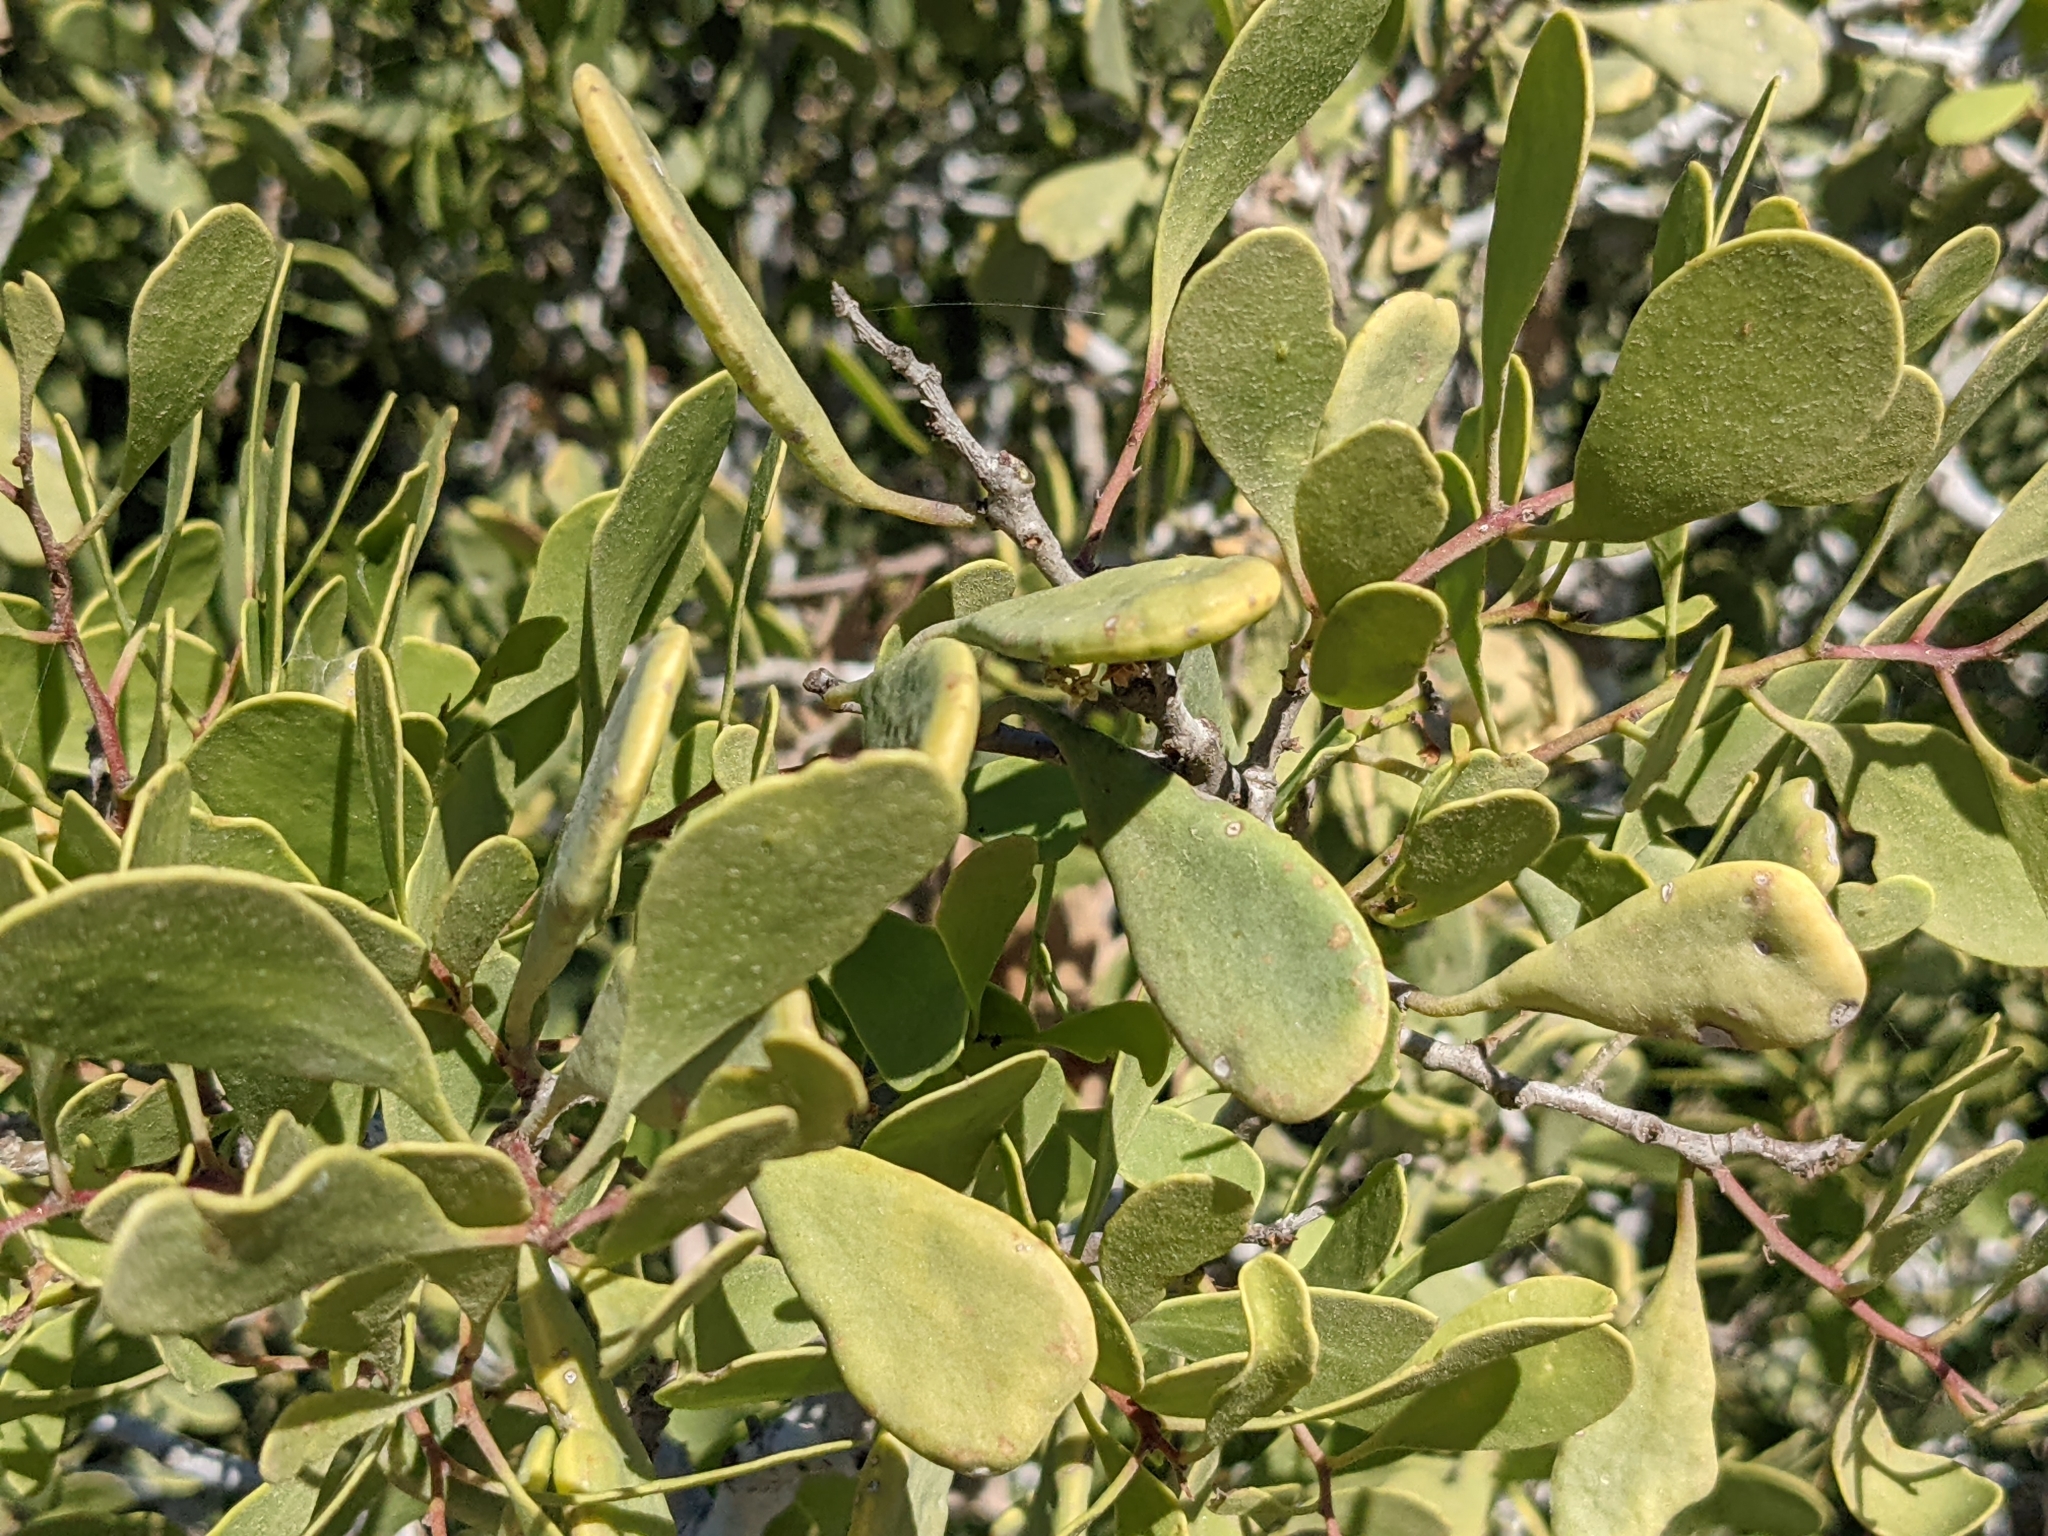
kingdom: Plantae
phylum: Tracheophyta
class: Magnoliopsida
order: Celastrales
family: Celastraceae
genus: Tricerma
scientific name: Tricerma phyllanthoides
